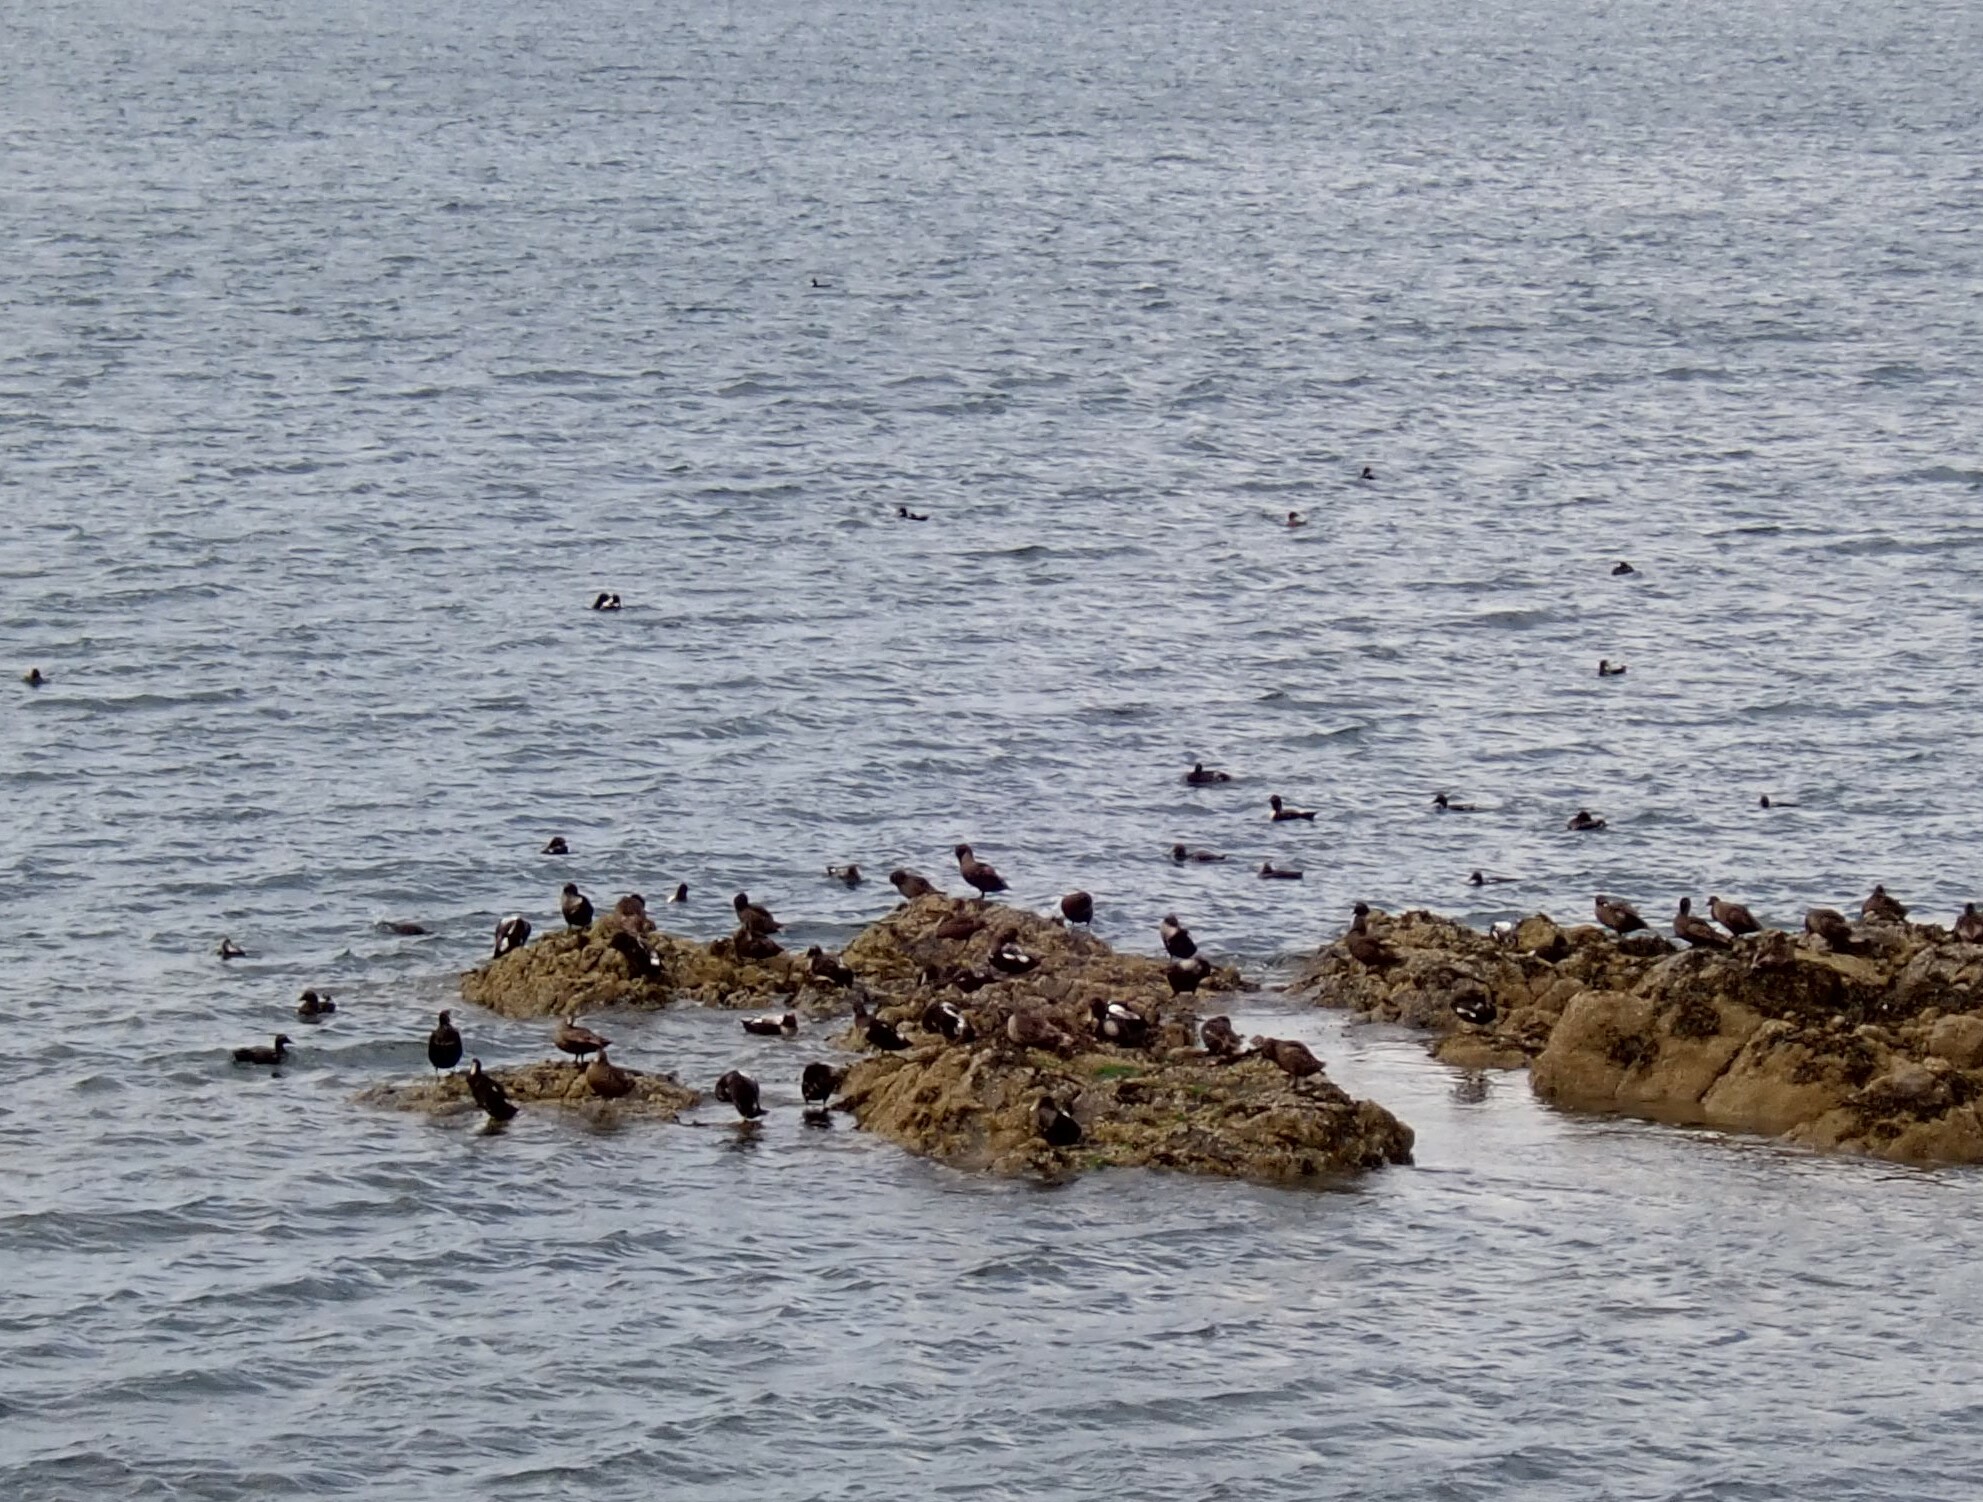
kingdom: Animalia
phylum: Chordata
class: Aves
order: Anseriformes
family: Anatidae
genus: Somateria
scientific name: Somateria mollissima
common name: Common eider
